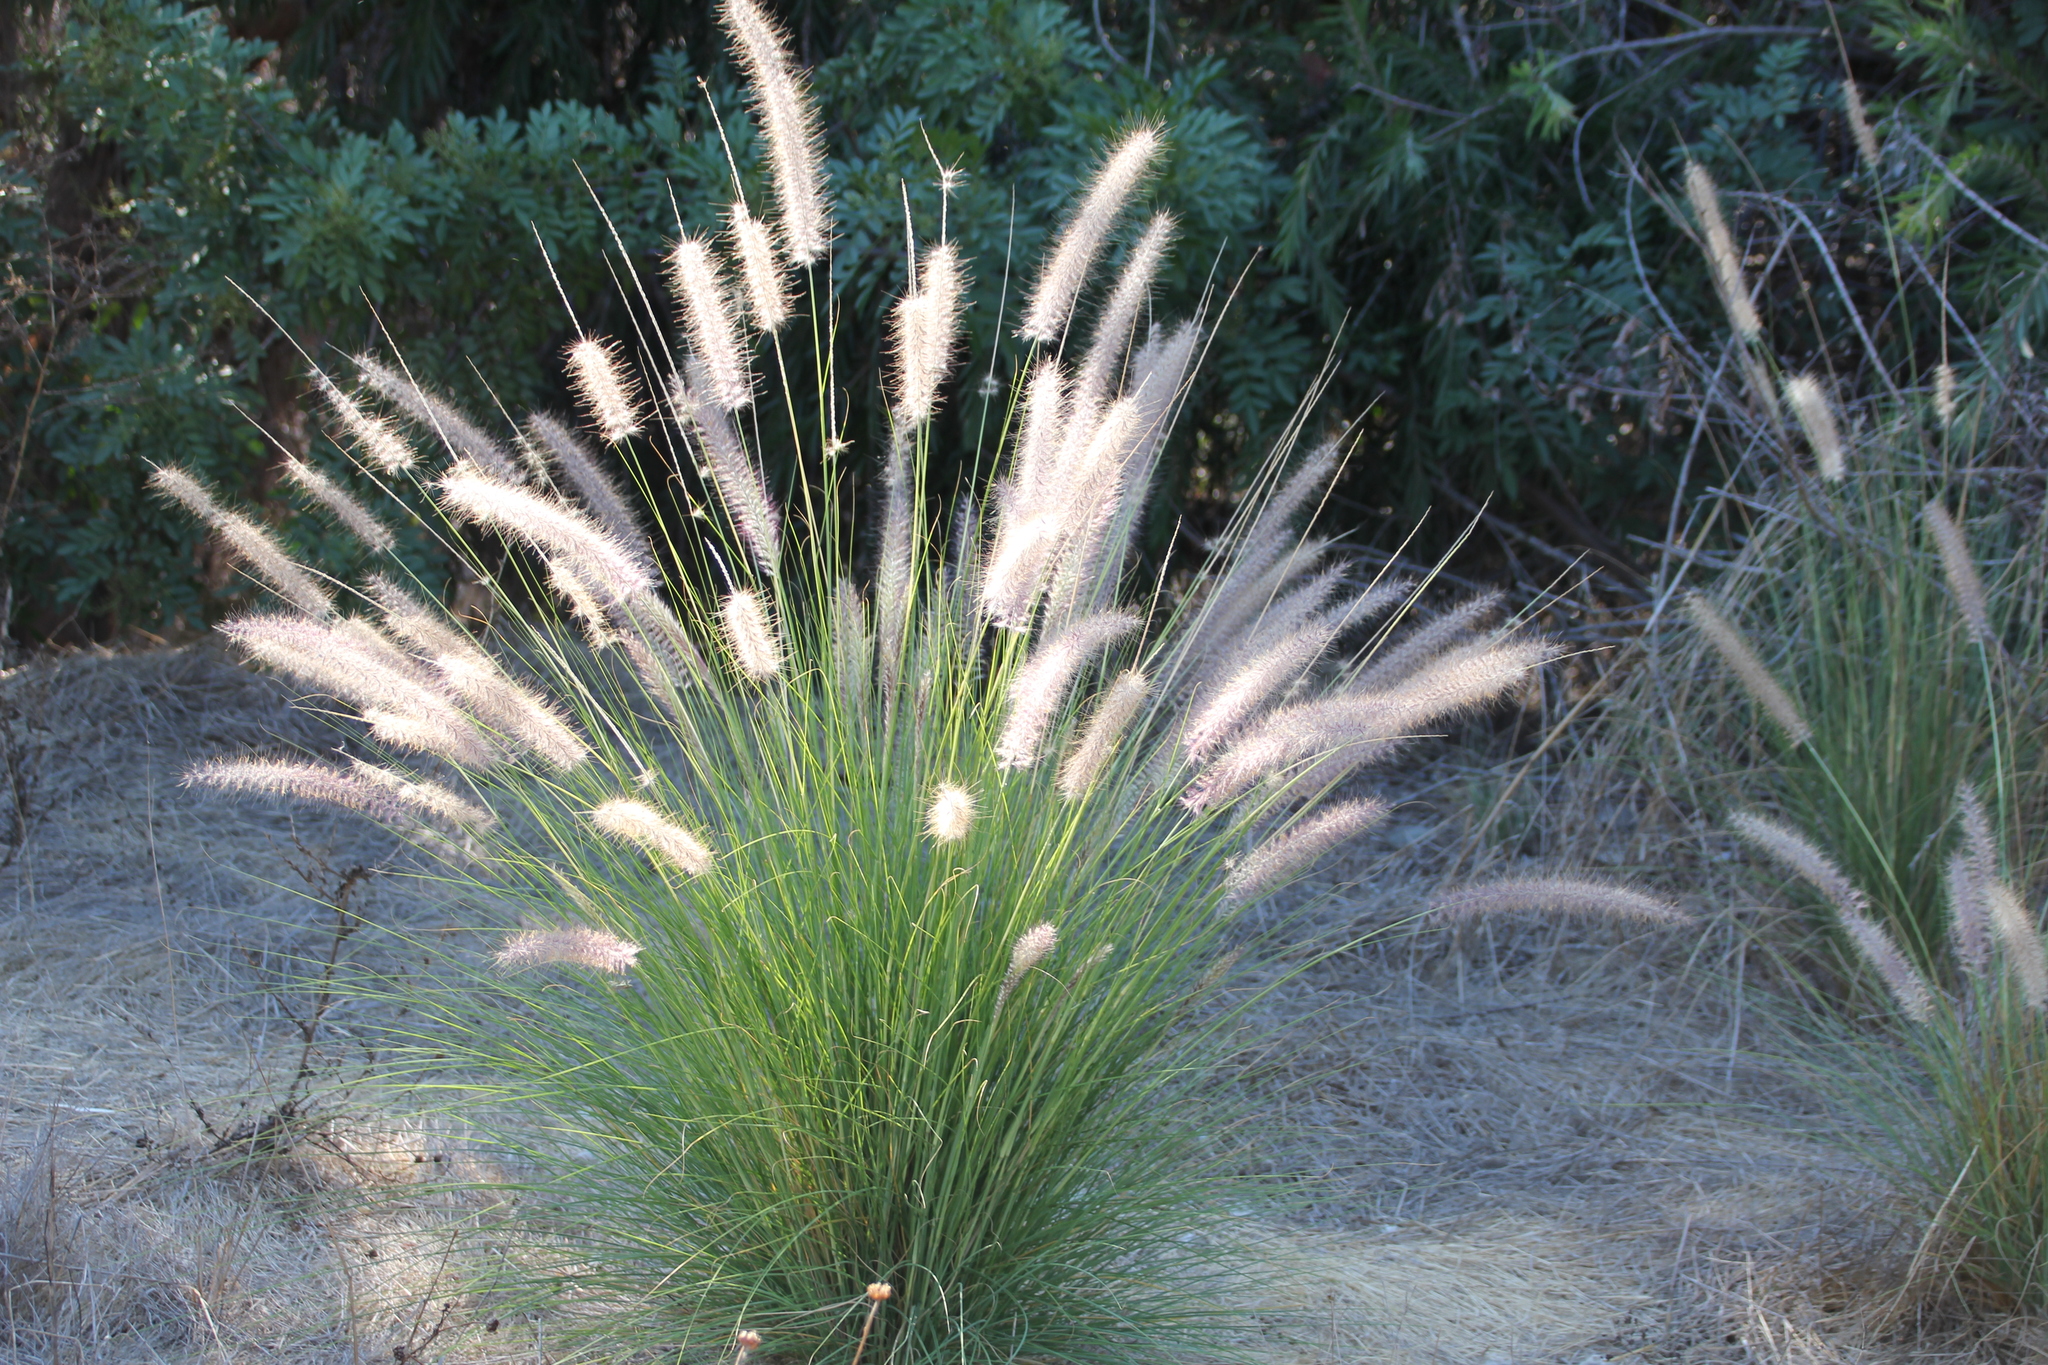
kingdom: Plantae
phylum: Tracheophyta
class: Liliopsida
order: Poales
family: Poaceae
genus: Cenchrus
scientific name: Cenchrus setaceus
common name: Crimson fountaingrass
